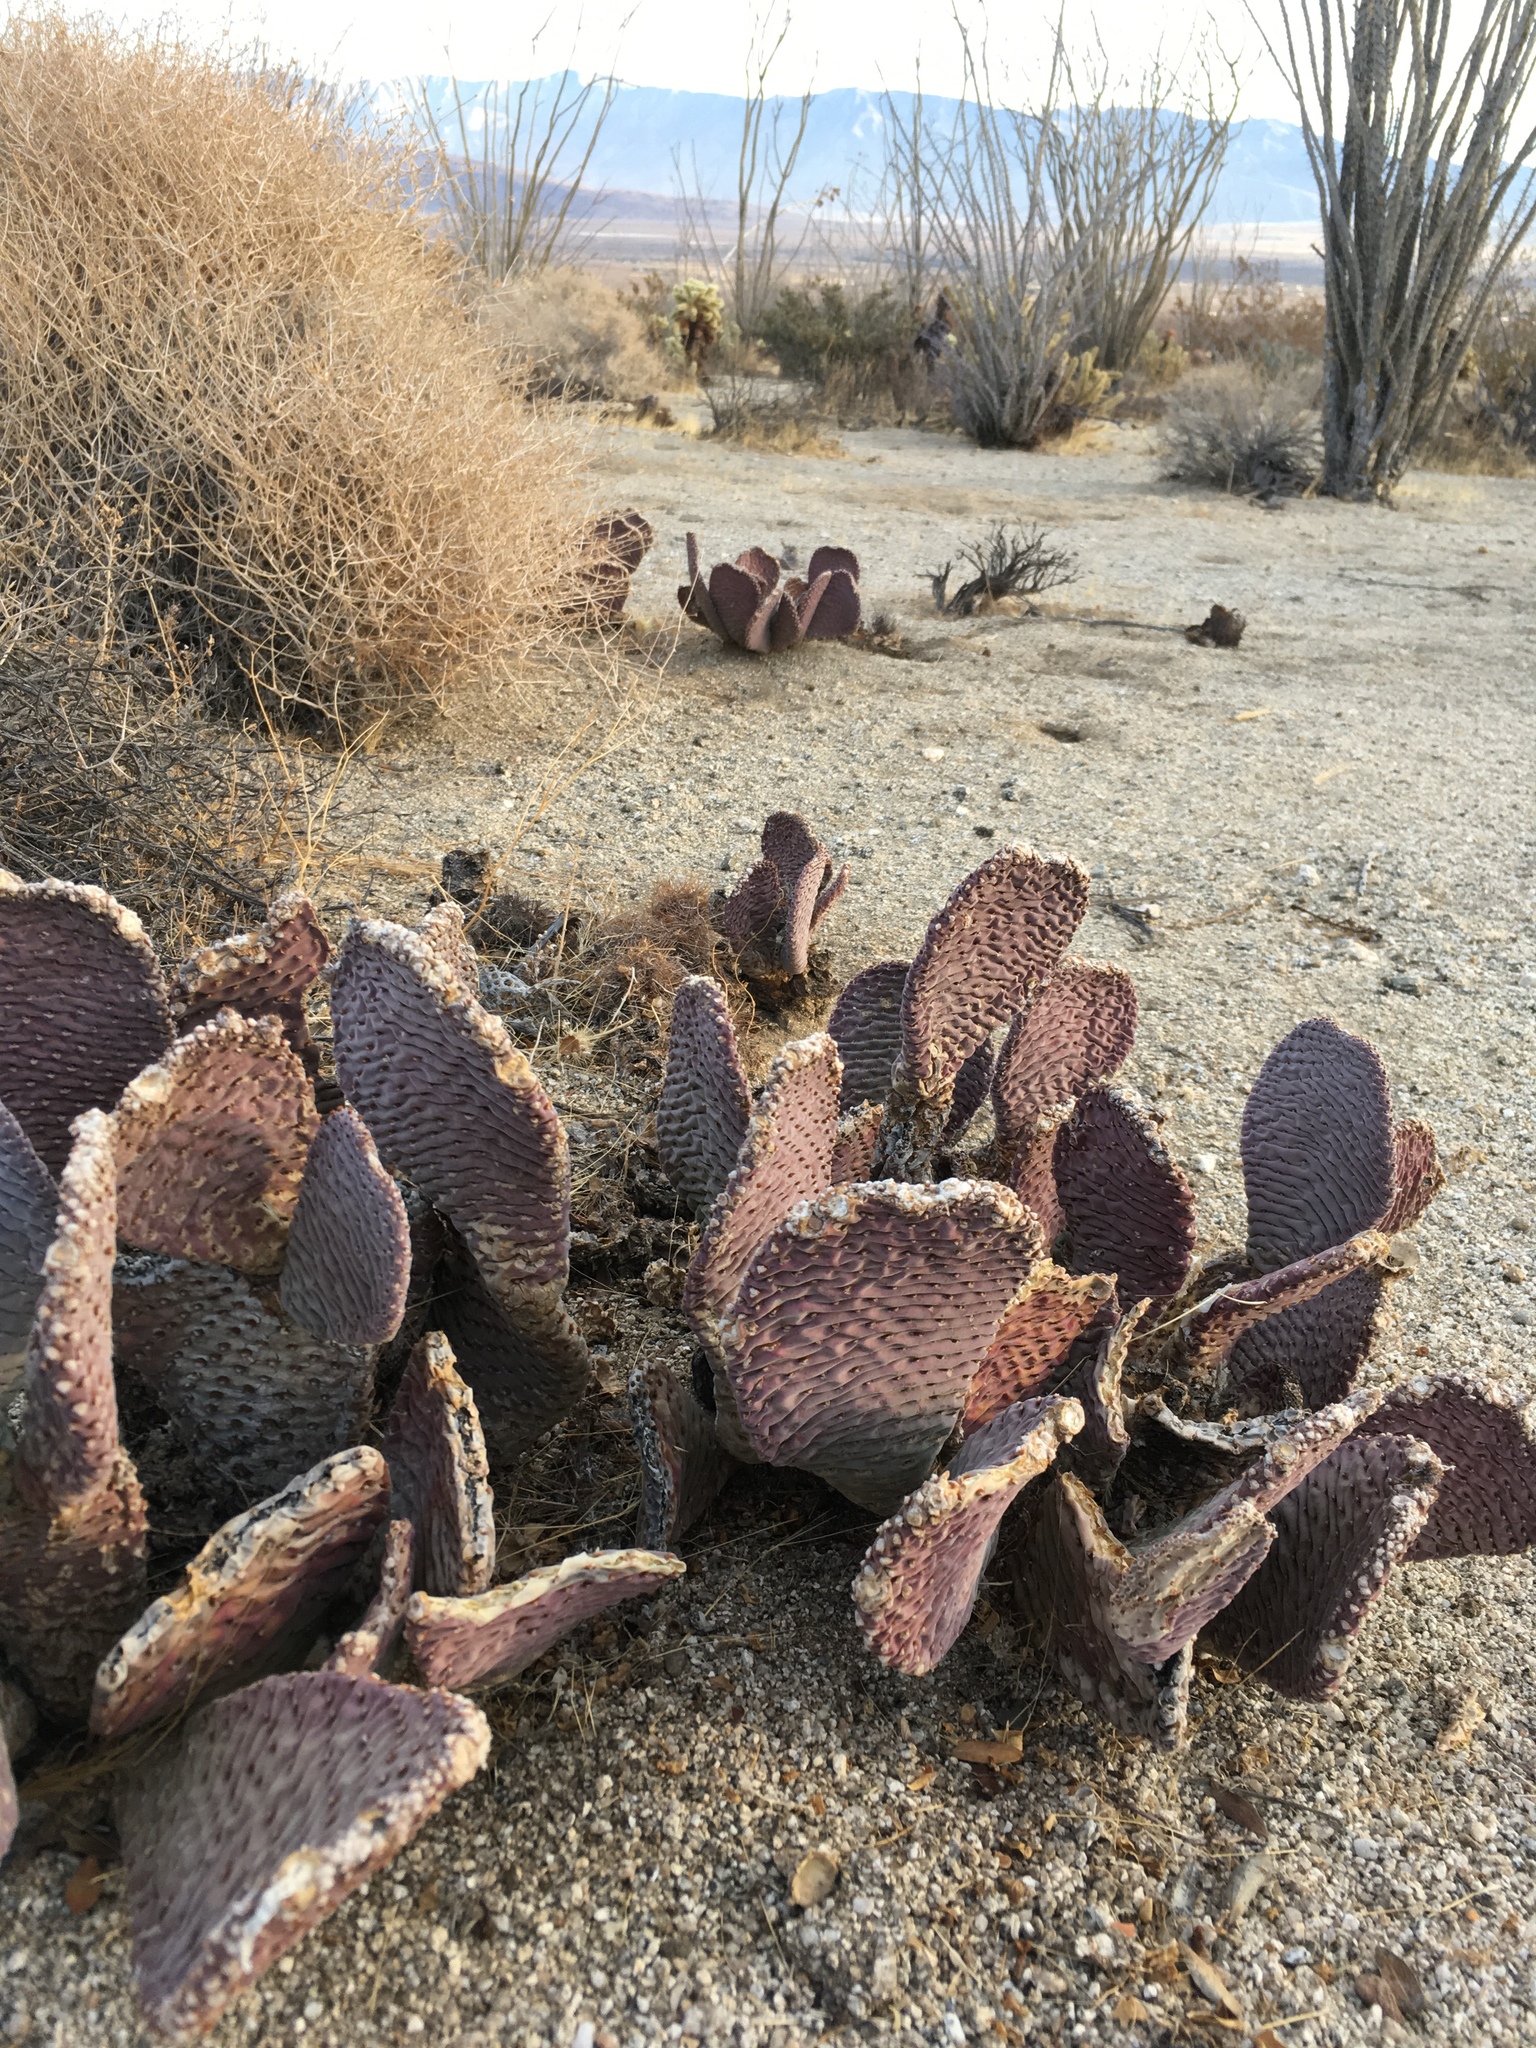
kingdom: Plantae
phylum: Tracheophyta
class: Magnoliopsida
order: Caryophyllales
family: Cactaceae
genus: Opuntia
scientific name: Opuntia basilaris
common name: Beavertail prickly-pear
